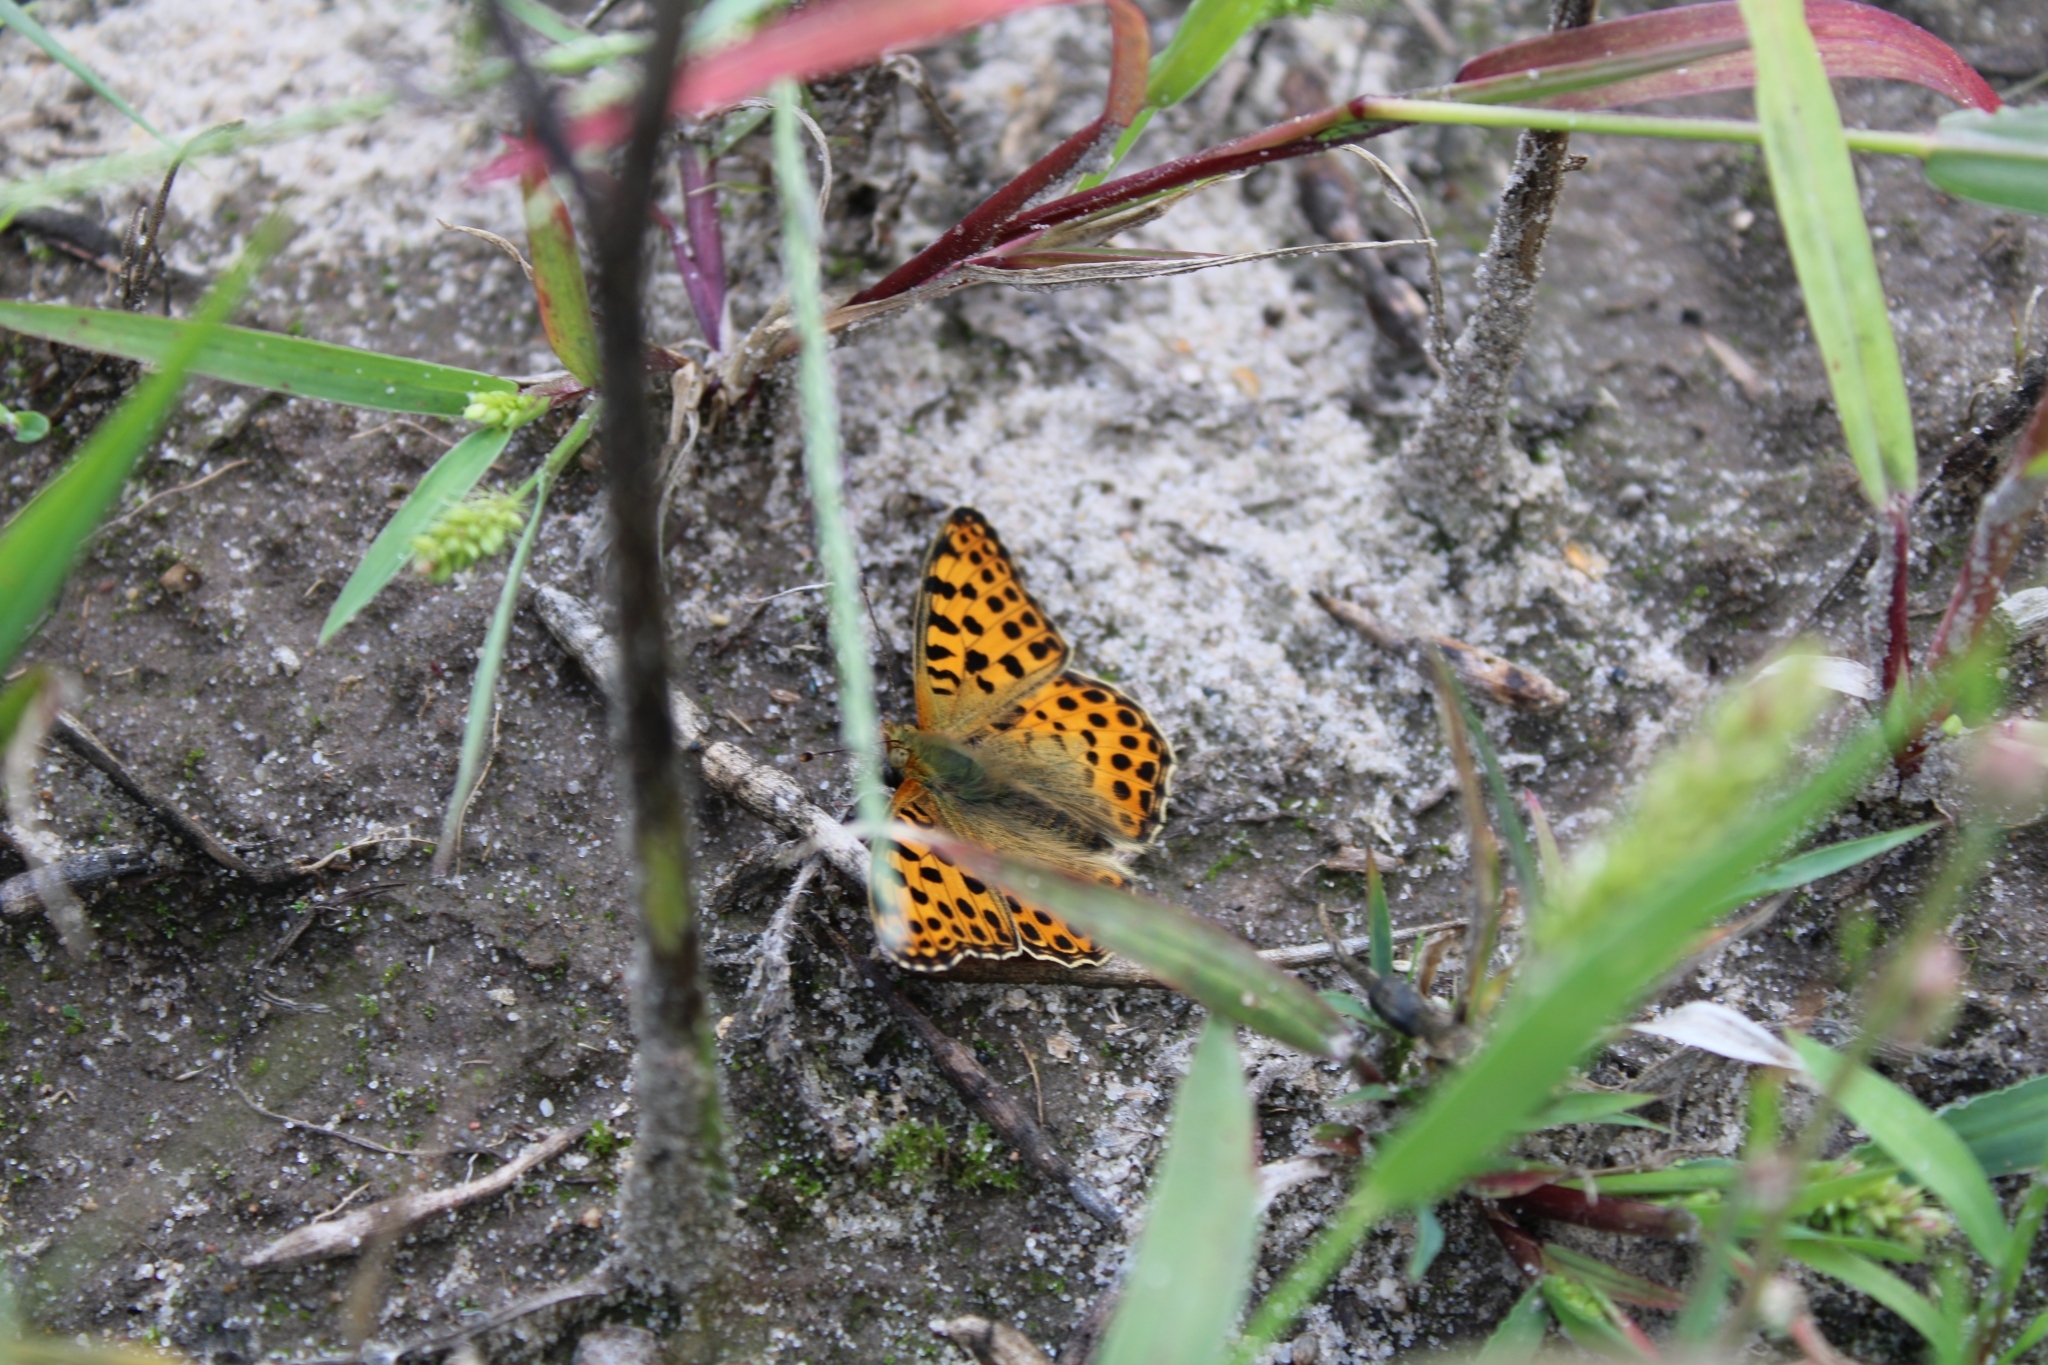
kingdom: Animalia
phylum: Arthropoda
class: Insecta
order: Lepidoptera
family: Nymphalidae
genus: Issoria
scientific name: Issoria lathonia
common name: Queen of spain fritillary
